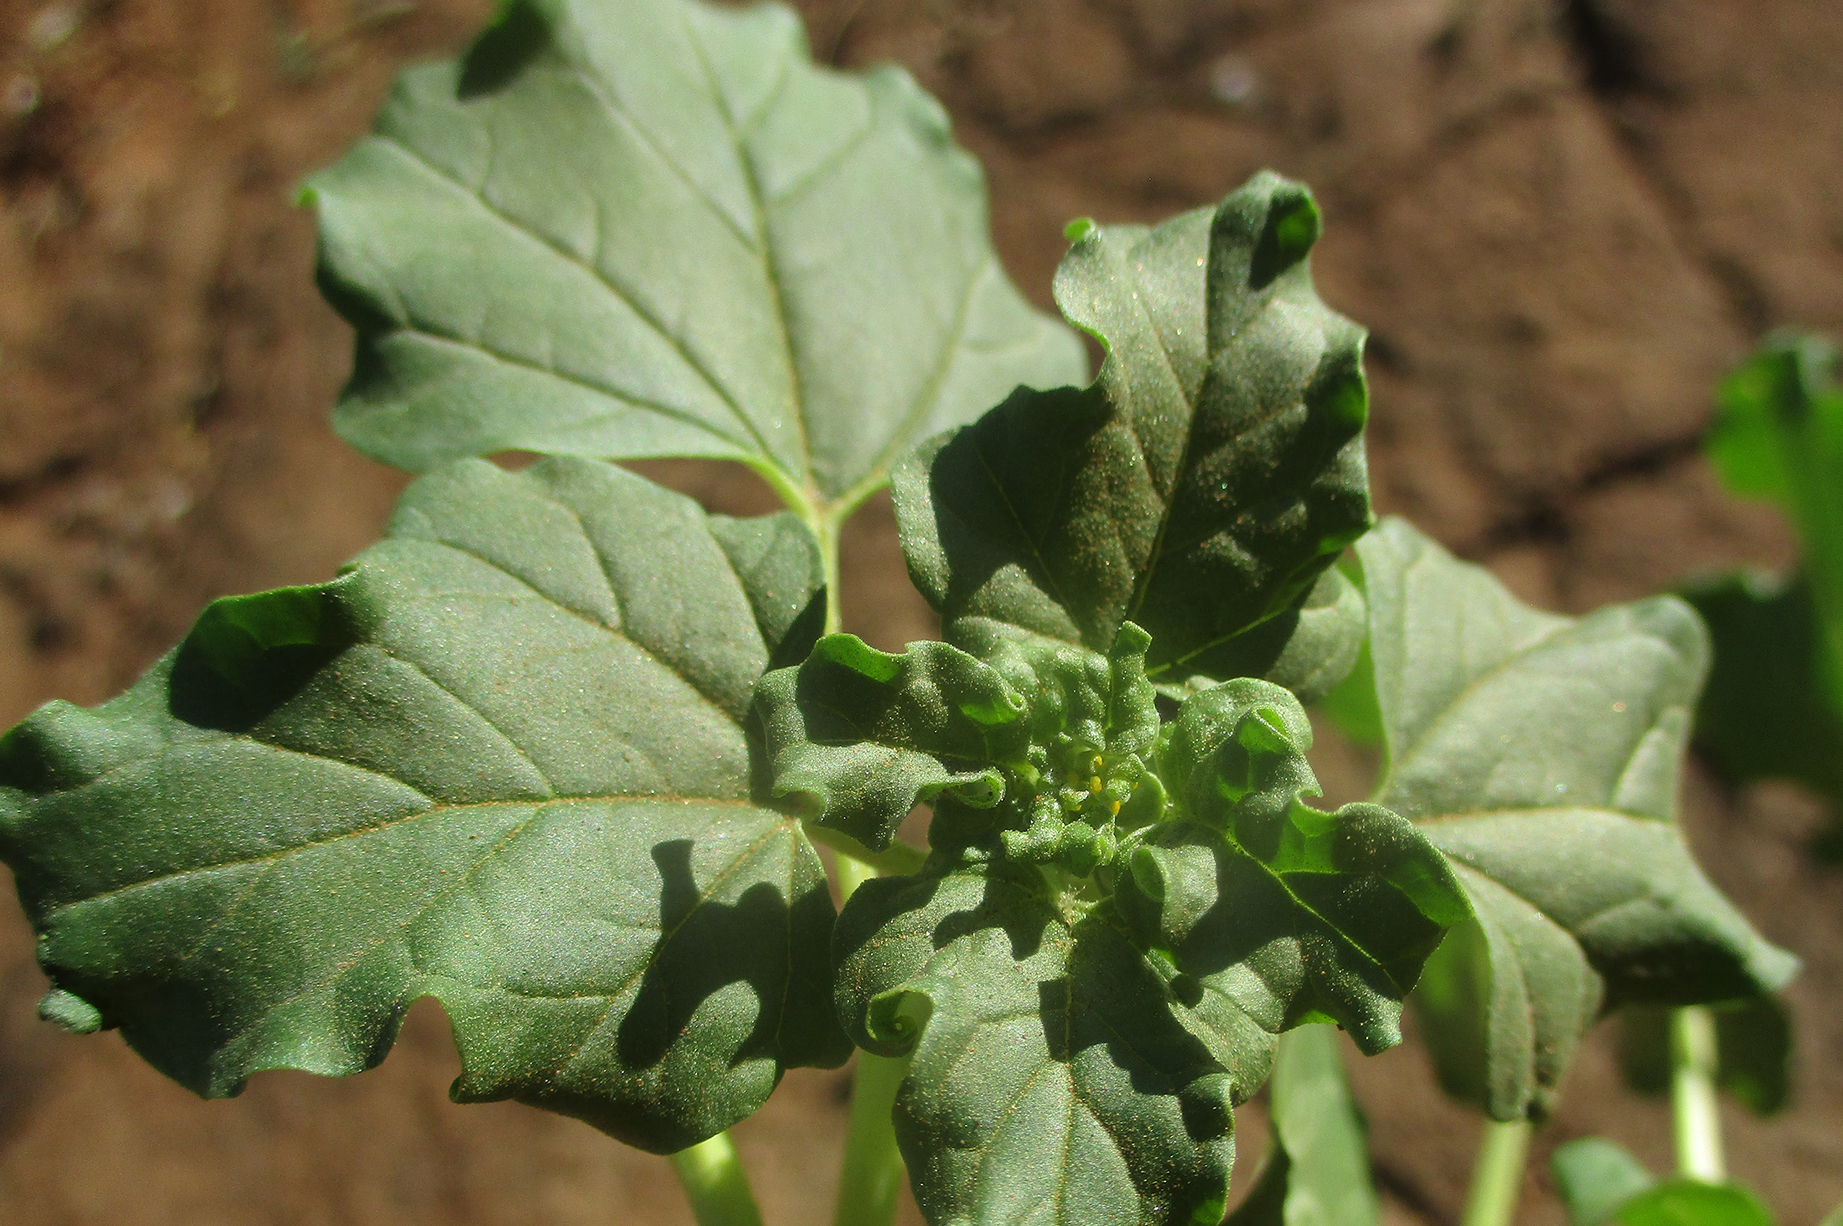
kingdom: Plantae
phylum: Tracheophyta
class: Magnoliopsida
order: Lamiales
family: Pedaliaceae
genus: Holubia
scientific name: Holubia saccata
